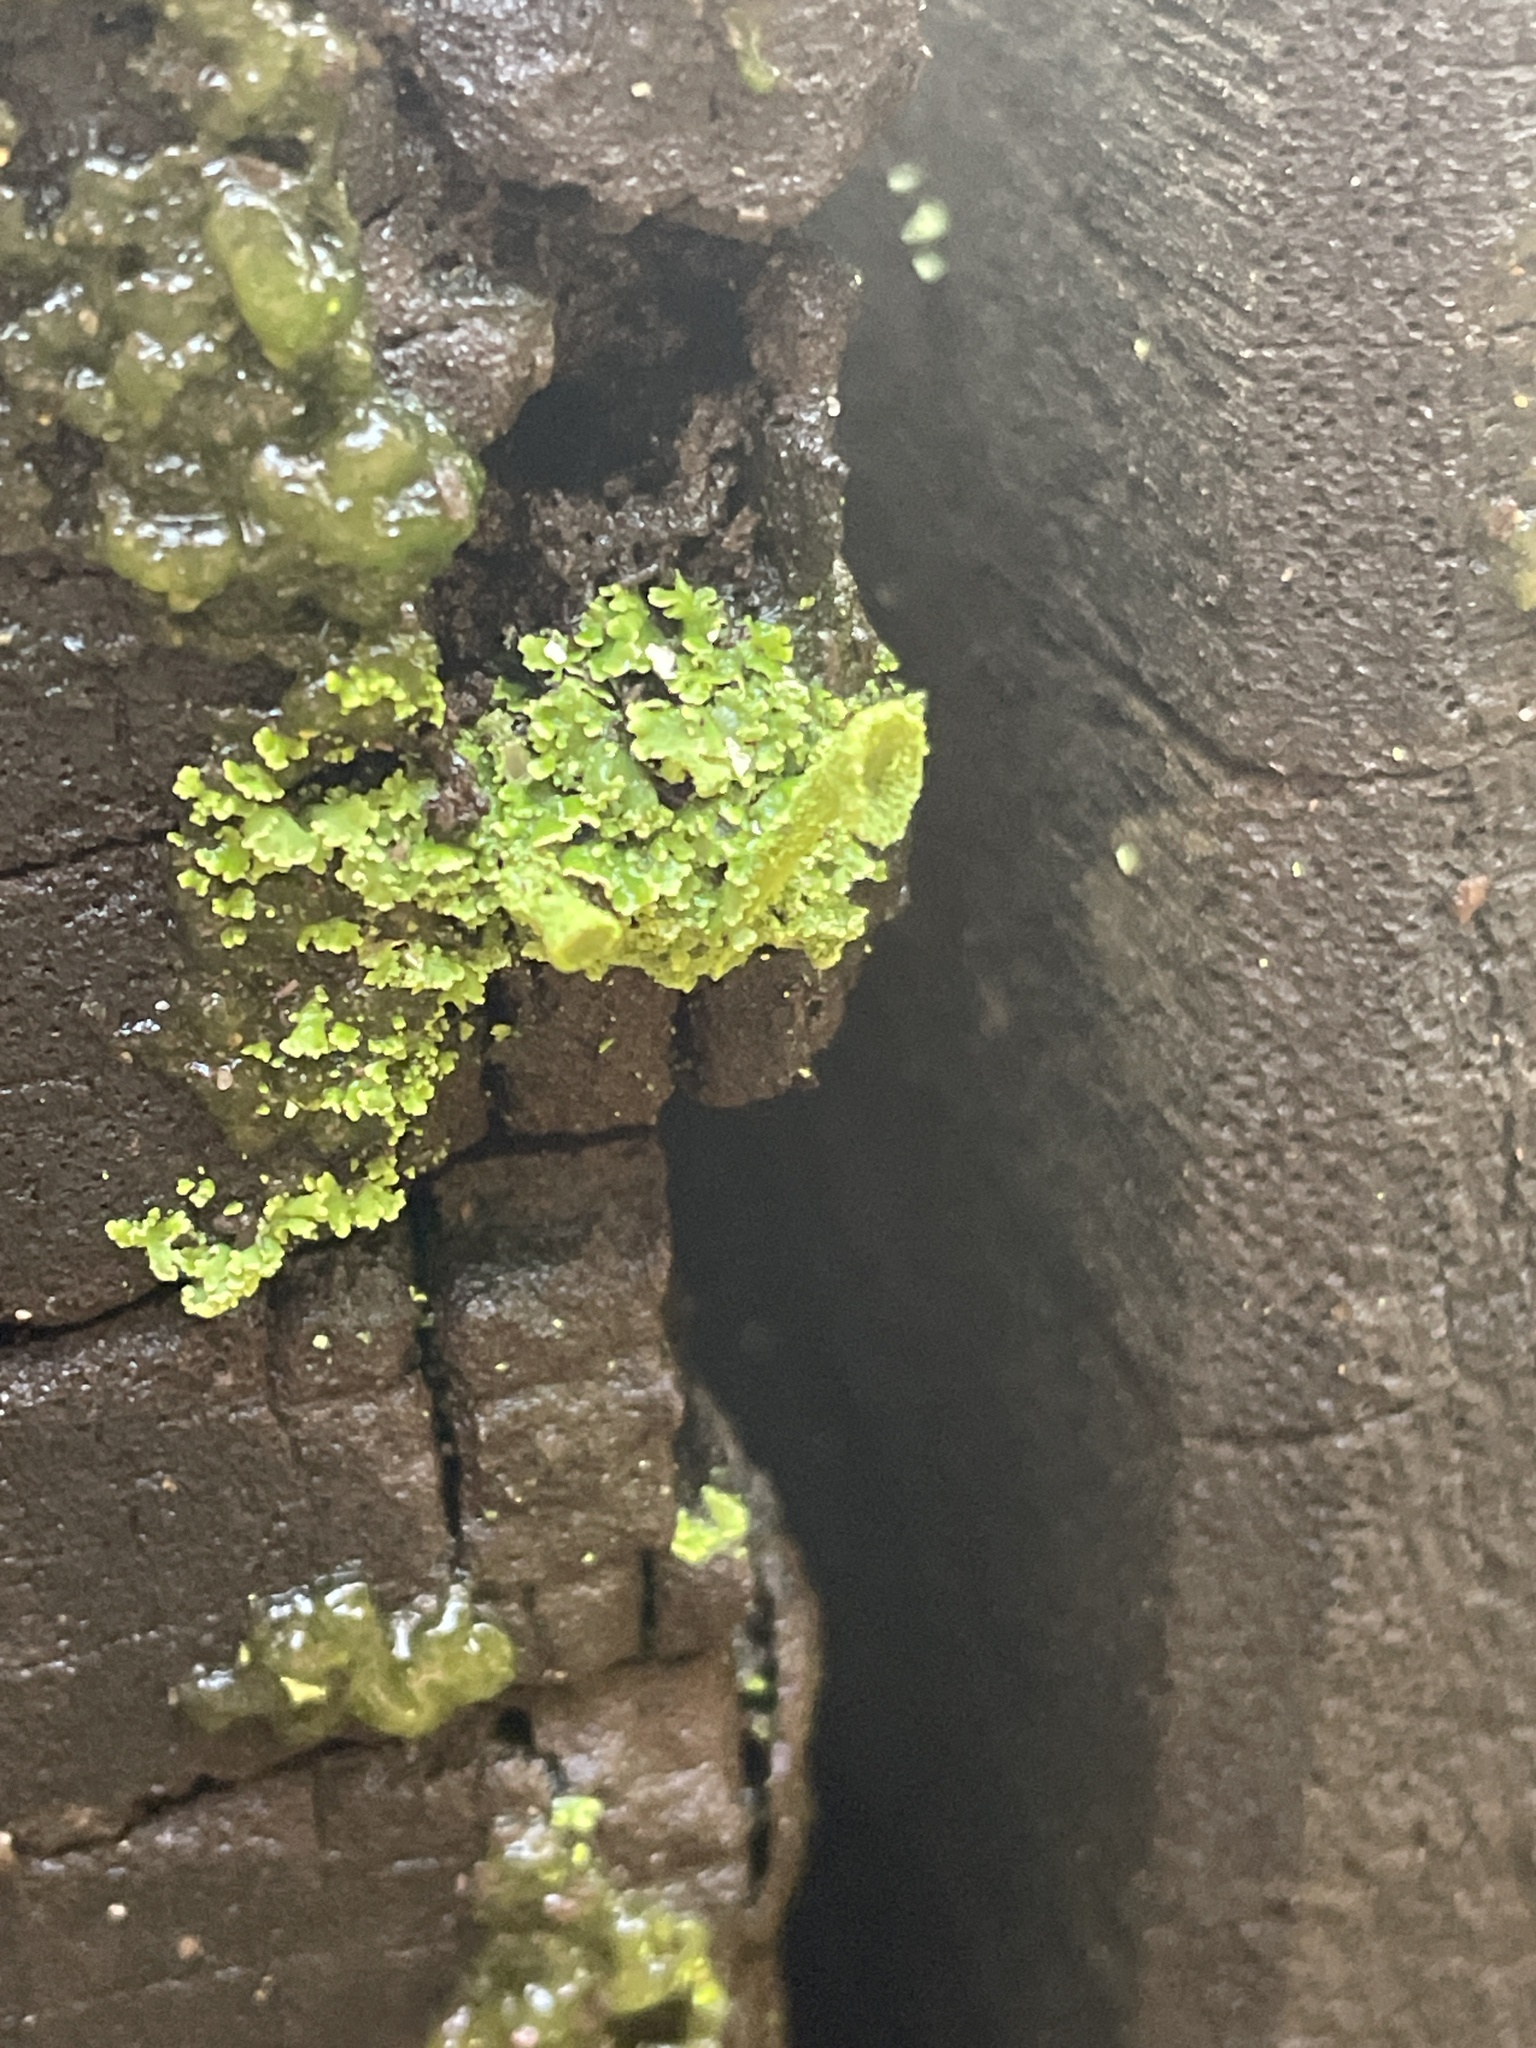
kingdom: Fungi
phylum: Ascomycota
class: Lecanoromycetes
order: Lecanorales
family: Cladoniaceae
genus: Cladonia
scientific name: Cladonia
